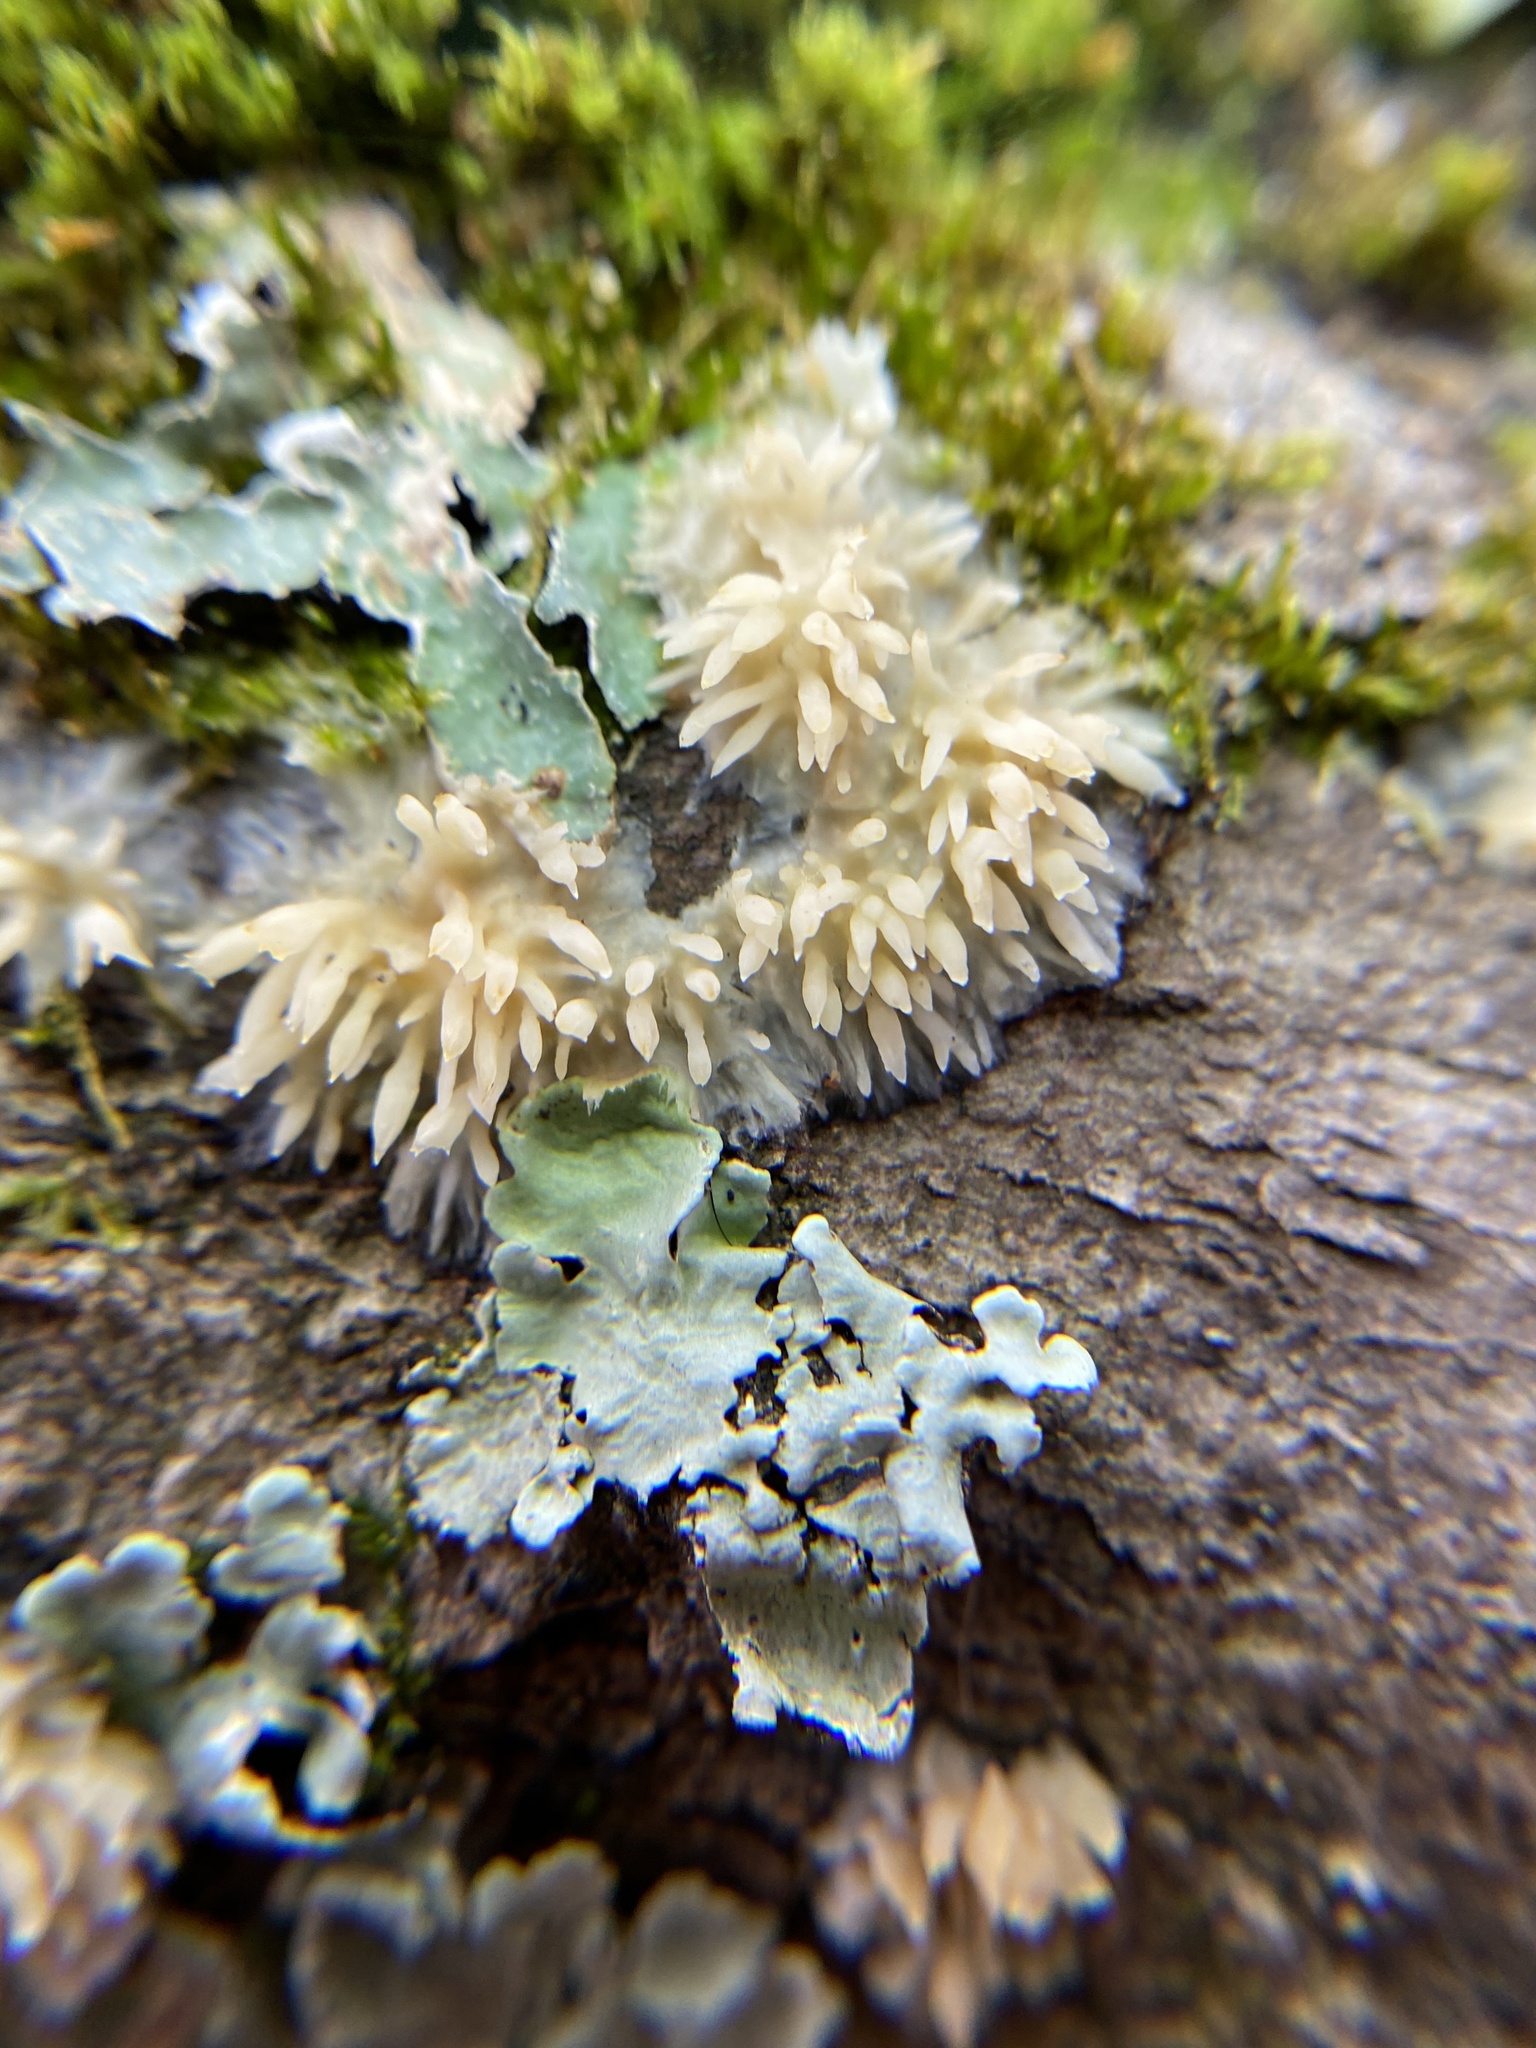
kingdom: Fungi
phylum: Basidiomycota
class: Agaricomycetes
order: Agaricales
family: Radulomycetaceae
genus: Radulomyces
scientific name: Radulomyces copelandii
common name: Asian beauty
